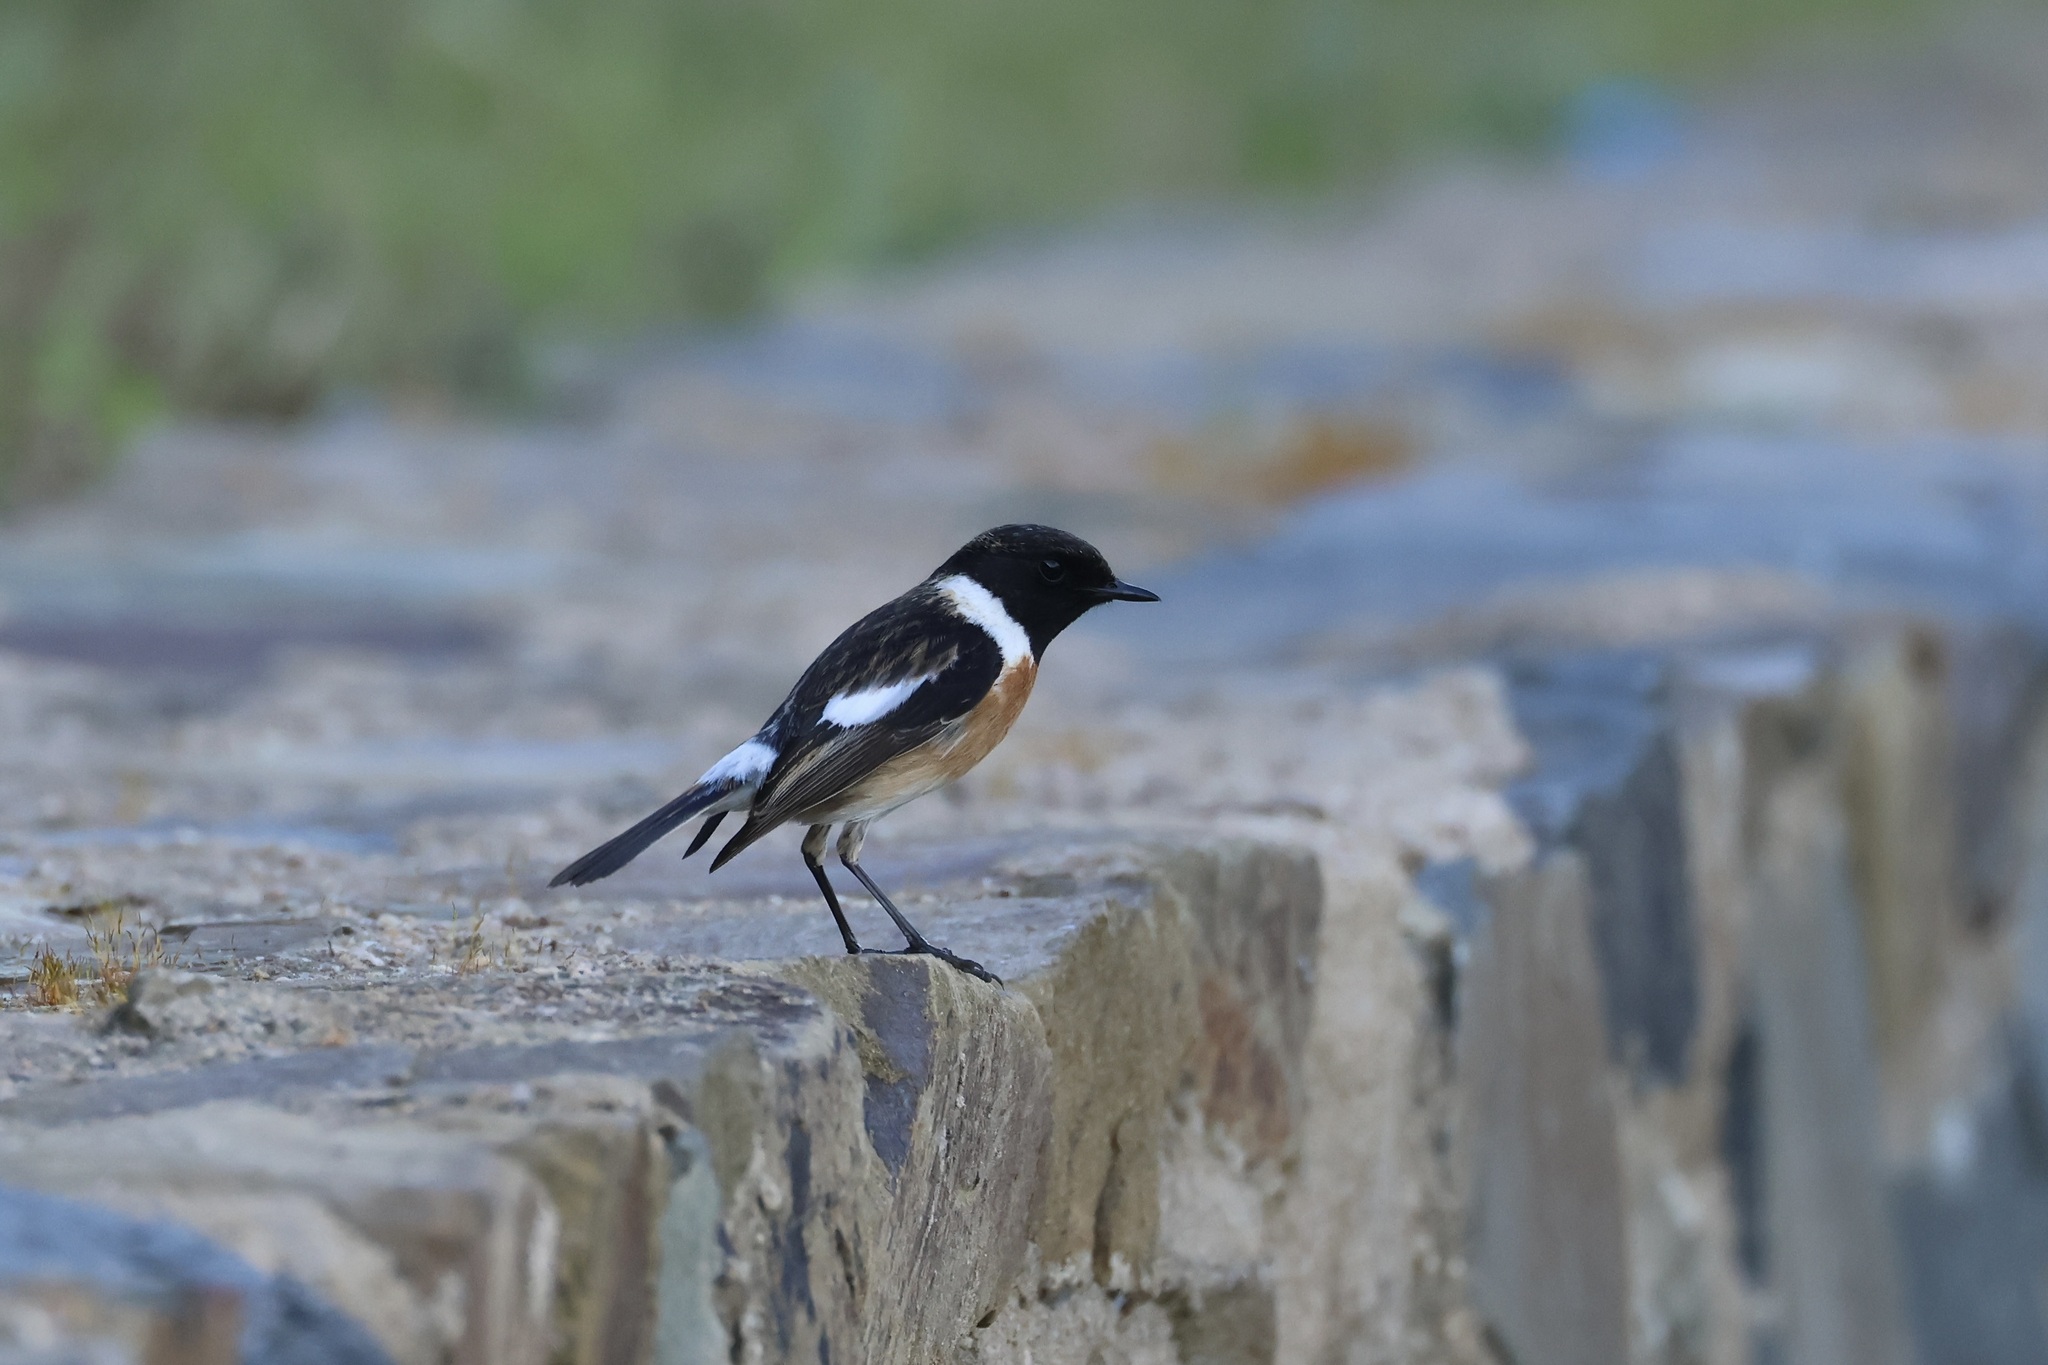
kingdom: Animalia
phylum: Chordata
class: Aves
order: Passeriformes
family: Muscicapidae
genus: Saxicola
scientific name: Saxicola rubicola
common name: European stonechat
